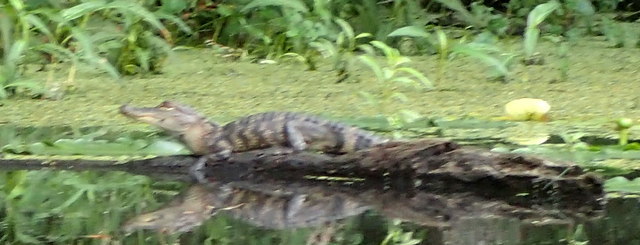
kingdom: Animalia
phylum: Chordata
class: Crocodylia
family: Alligatoridae
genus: Alligator
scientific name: Alligator mississippiensis
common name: American alligator
